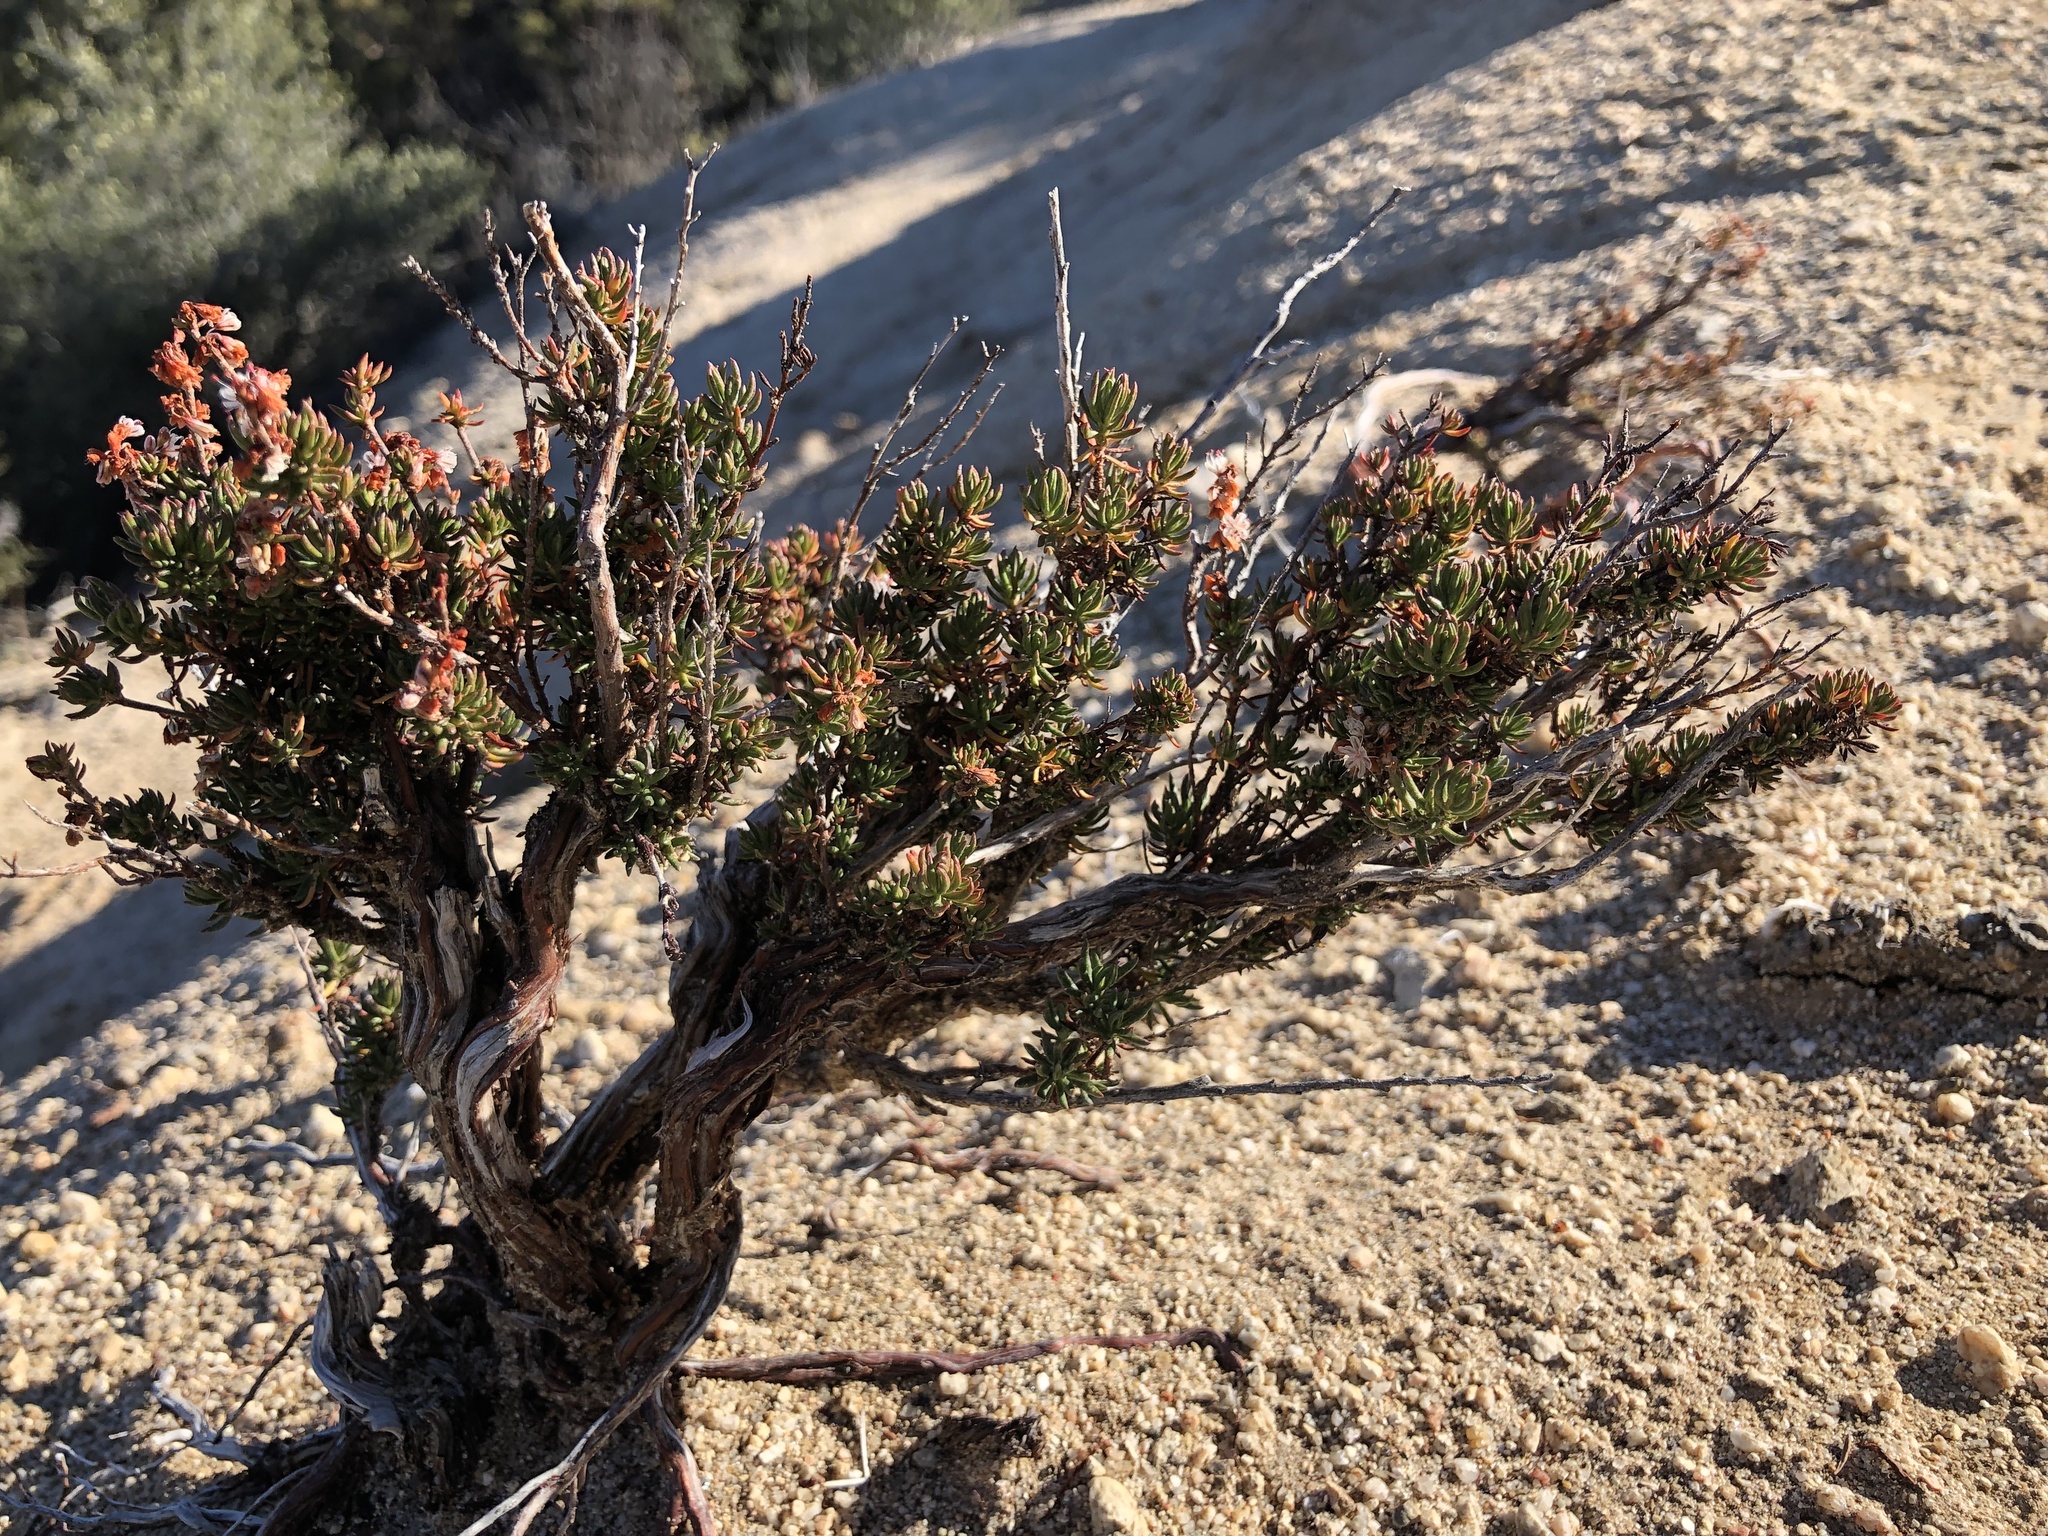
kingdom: Plantae
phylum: Tracheophyta
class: Magnoliopsida
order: Caryophyllales
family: Polygonaceae
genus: Eriogonum
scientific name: Eriogonum wrightii
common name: Bastard-sage
